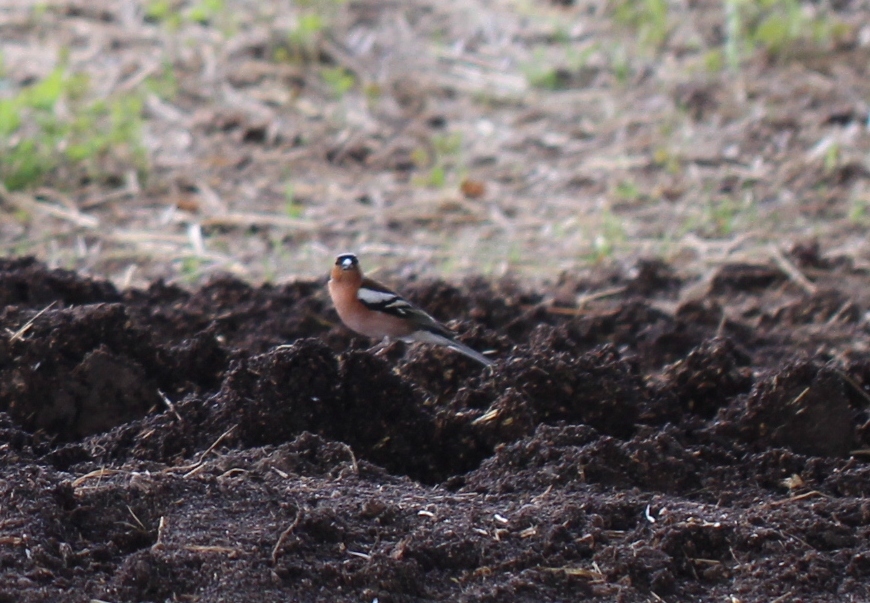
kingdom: Animalia
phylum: Chordata
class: Aves
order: Passeriformes
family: Fringillidae
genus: Fringilla
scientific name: Fringilla coelebs
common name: Common chaffinch
